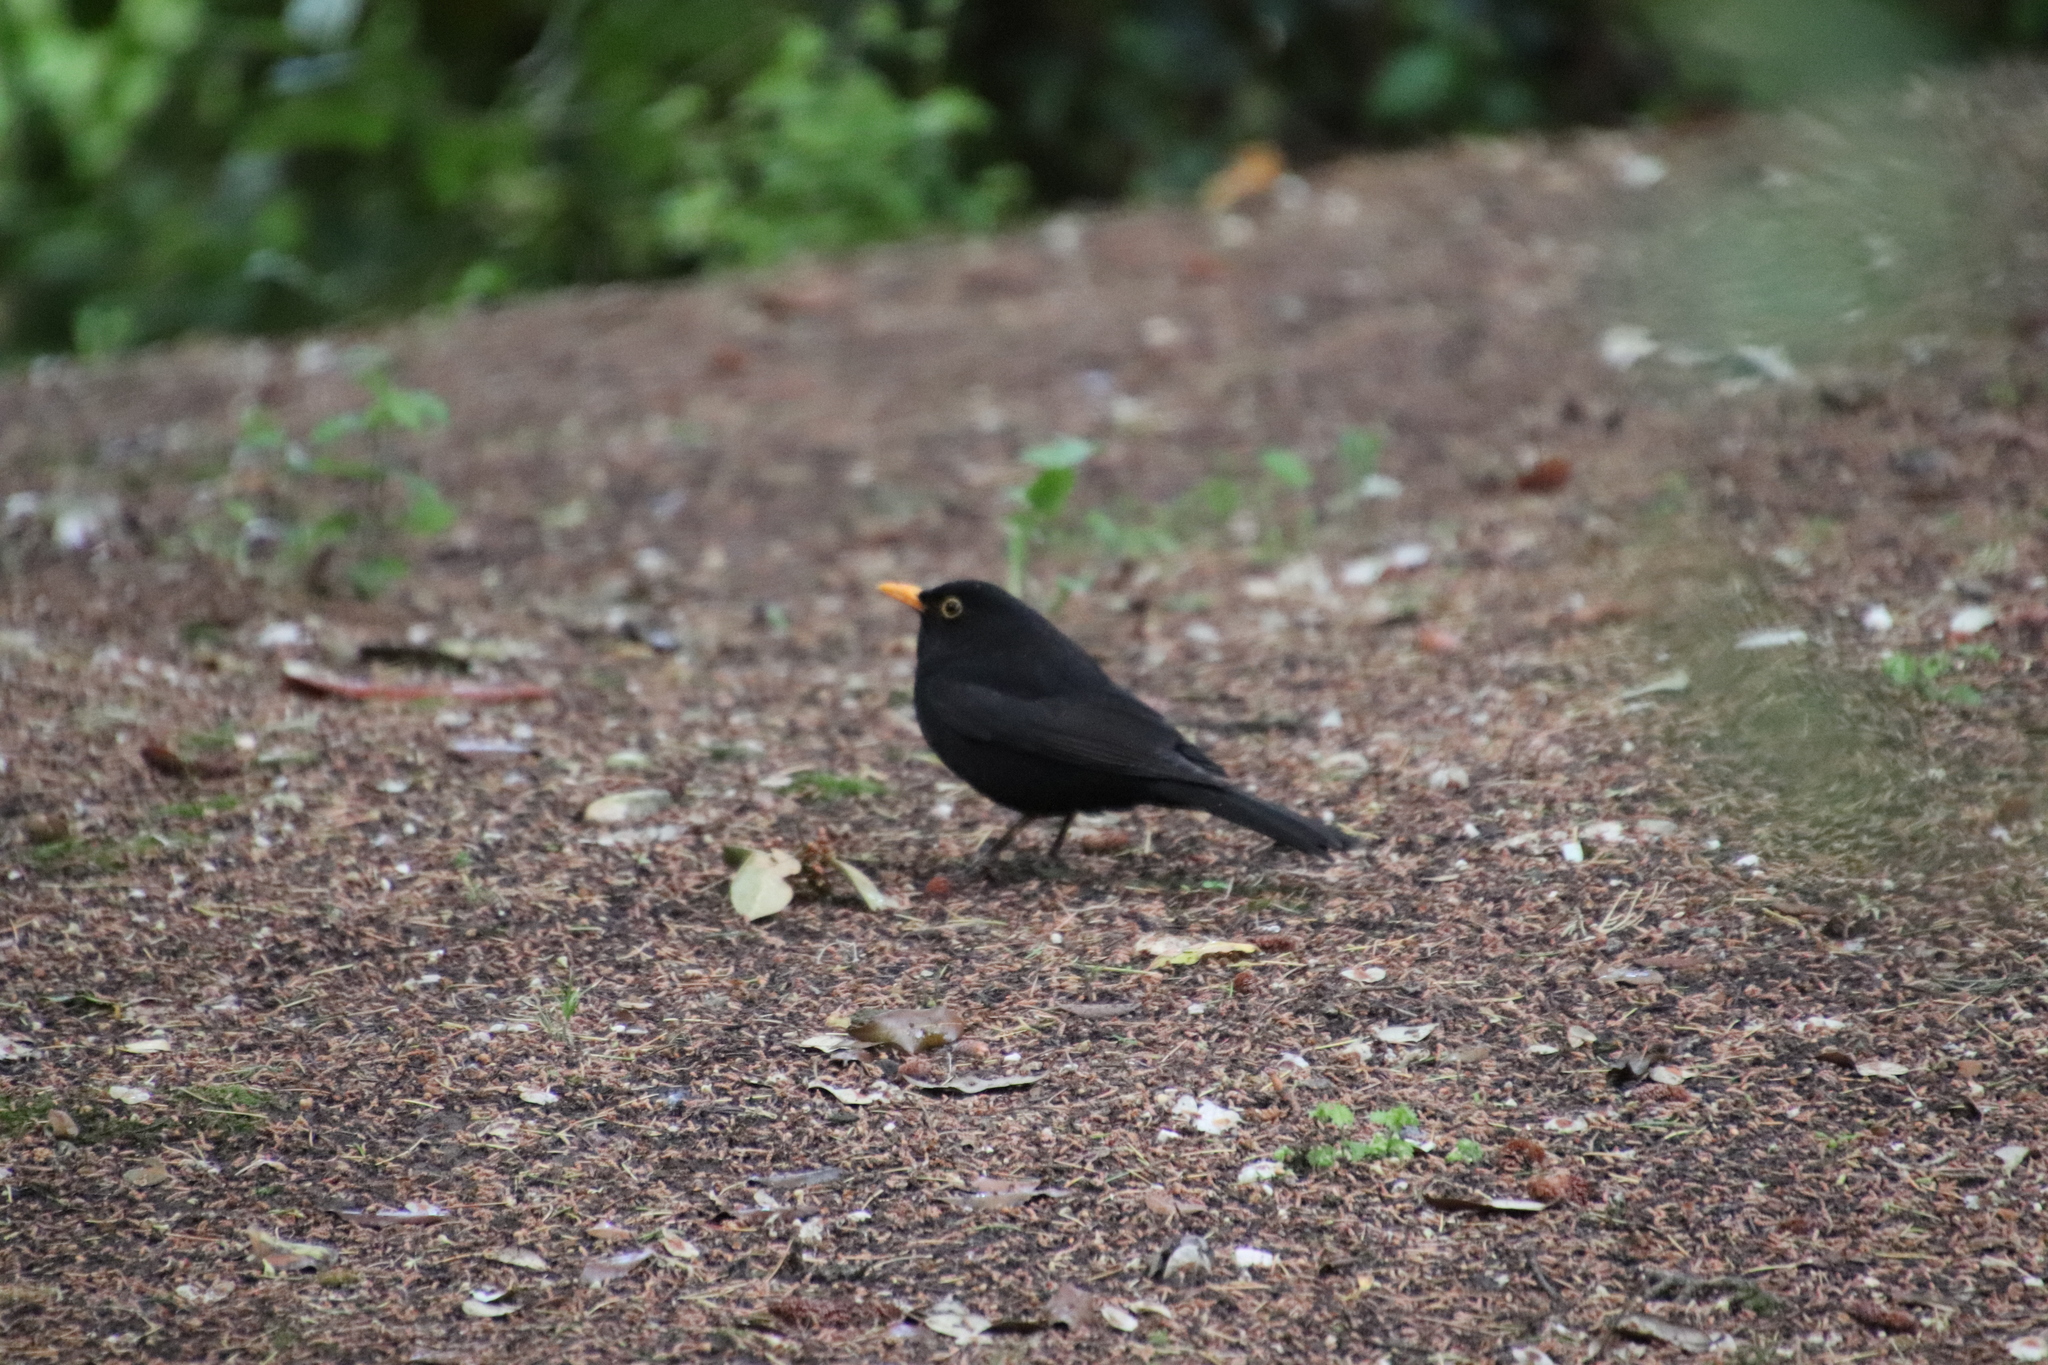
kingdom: Animalia
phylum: Chordata
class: Aves
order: Passeriformes
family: Turdidae
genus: Turdus
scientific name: Turdus merula
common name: Common blackbird
